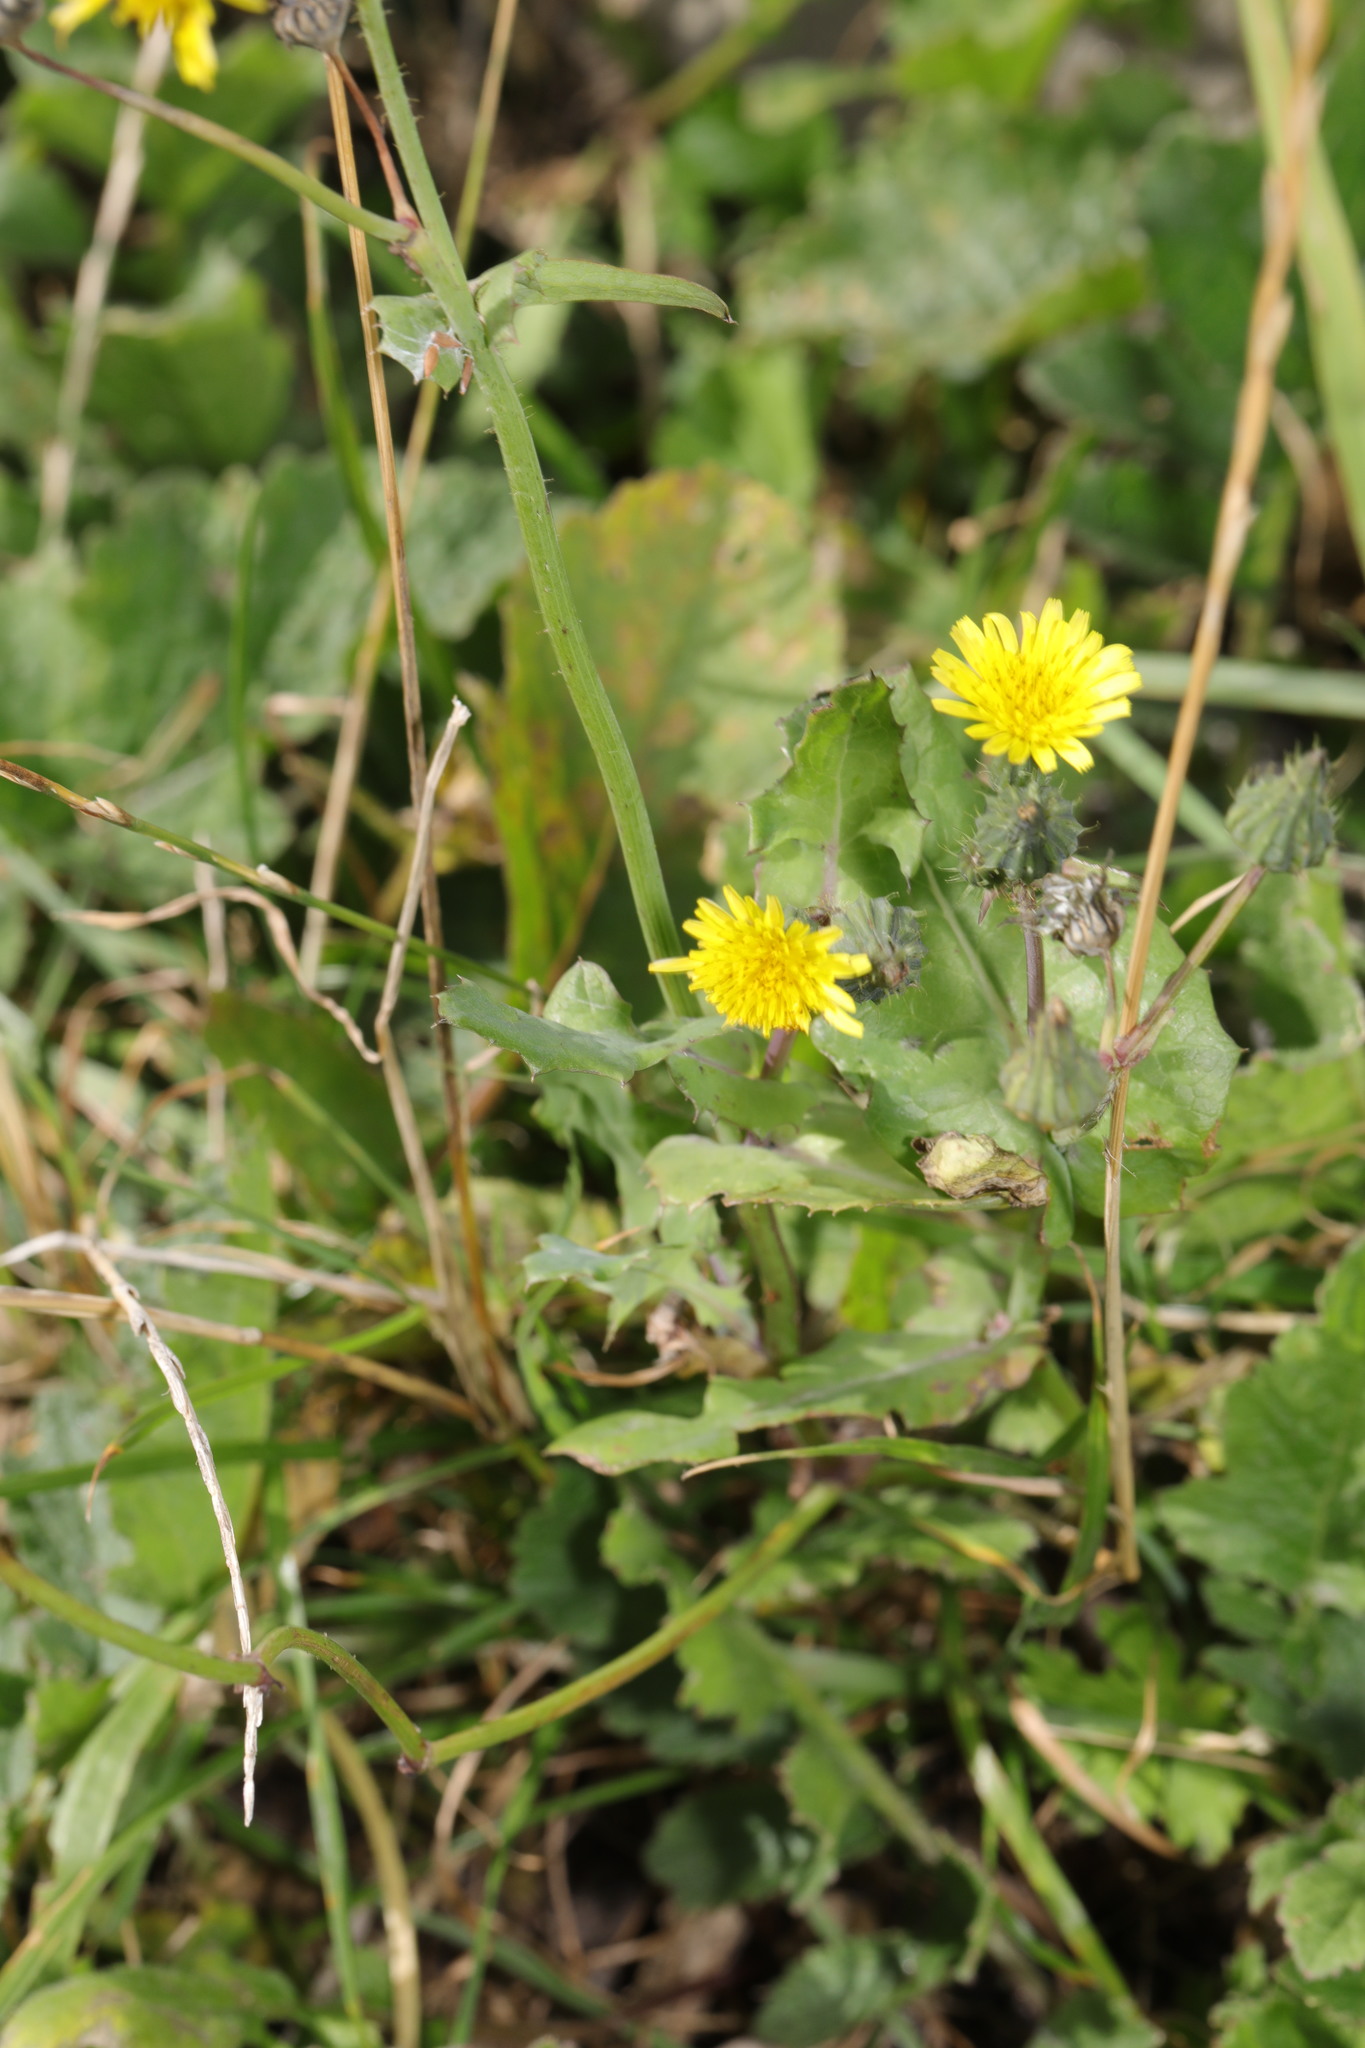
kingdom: Plantae
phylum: Tracheophyta
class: Magnoliopsida
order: Asterales
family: Asteraceae
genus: Sonchus
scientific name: Sonchus oleraceus
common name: Common sowthistle
